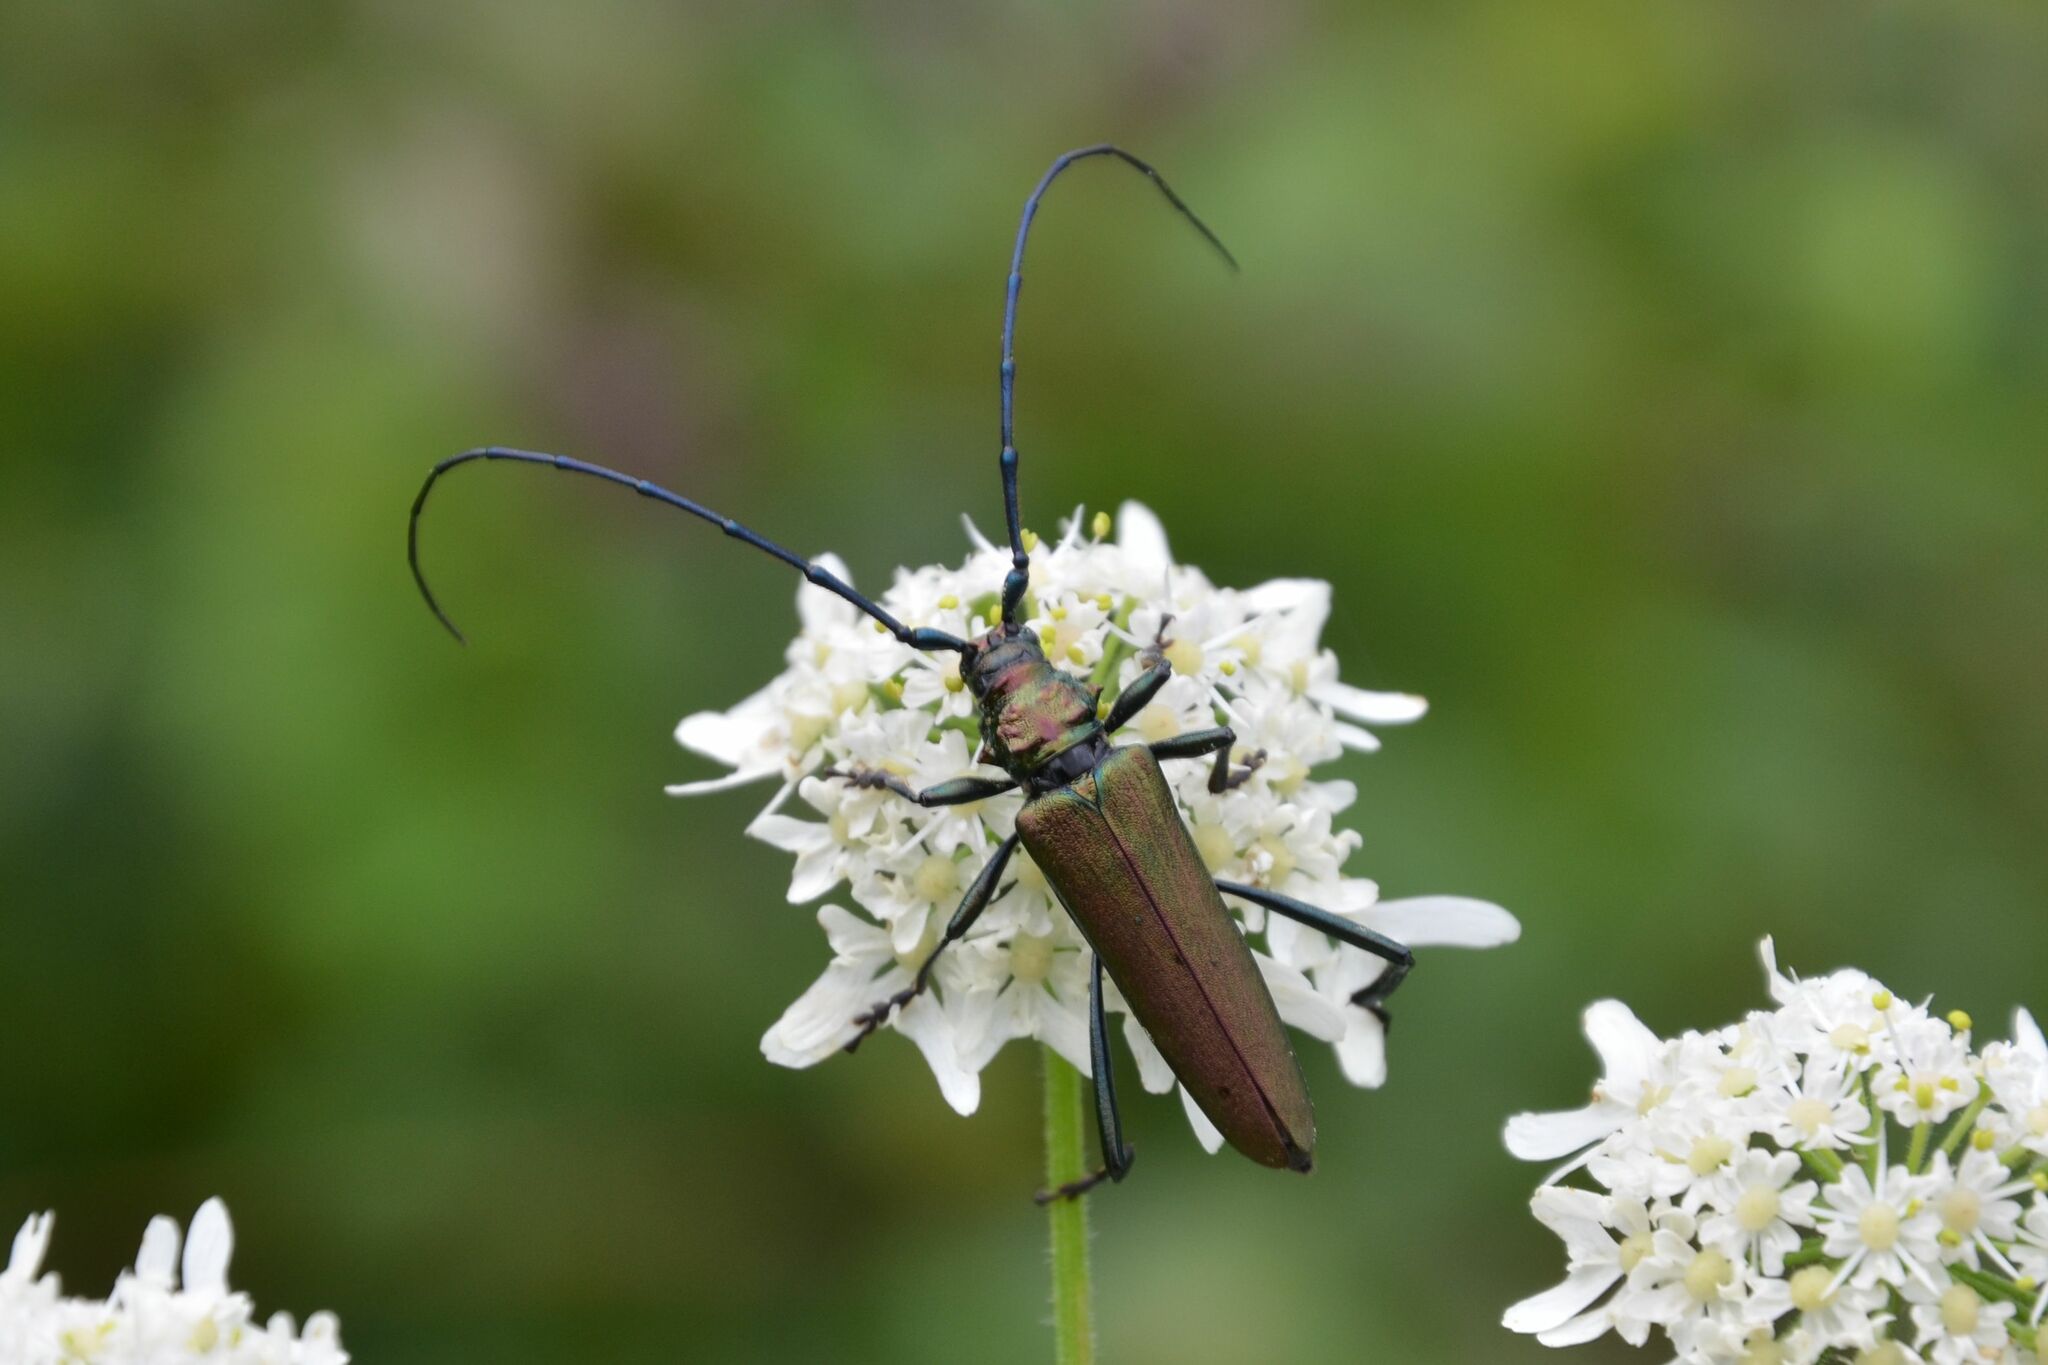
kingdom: Animalia
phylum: Arthropoda
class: Insecta
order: Coleoptera
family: Cerambycidae
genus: Aromia
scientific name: Aromia moschata
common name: Musk beetle
